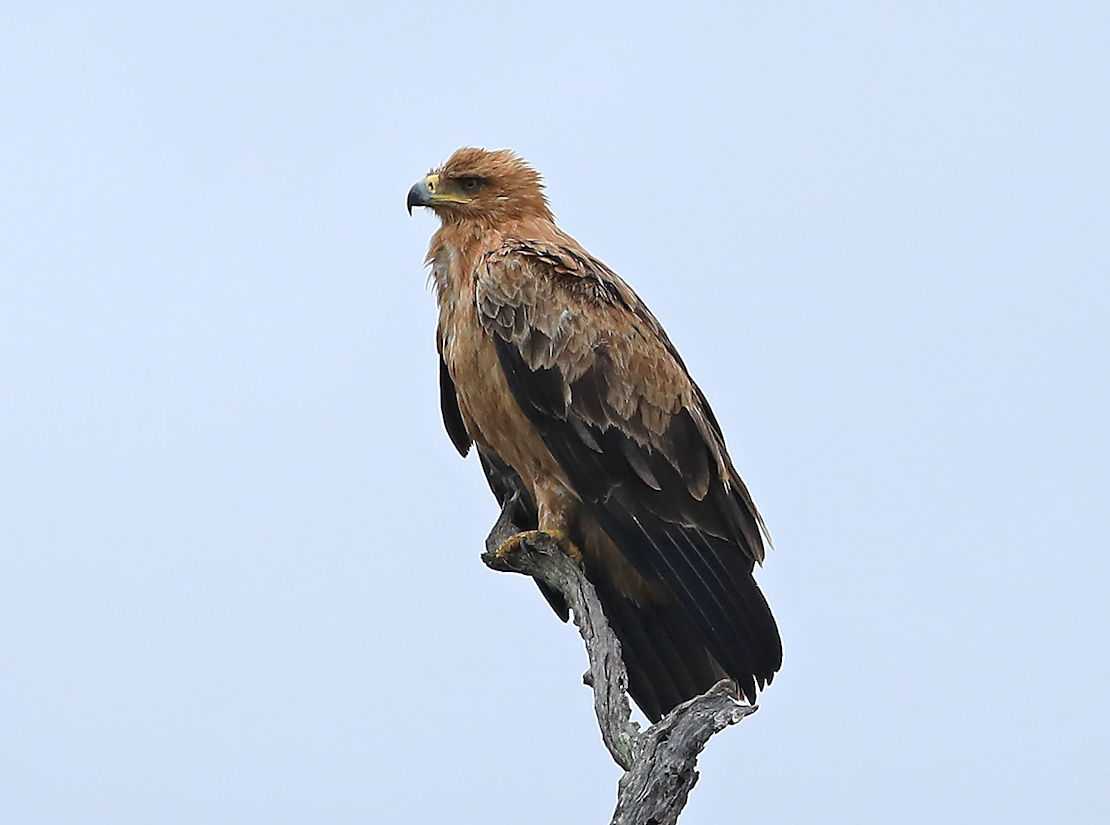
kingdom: Animalia
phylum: Chordata
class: Aves
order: Accipitriformes
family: Accipitridae
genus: Aquila
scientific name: Aquila rapax
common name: Tawny eagle
